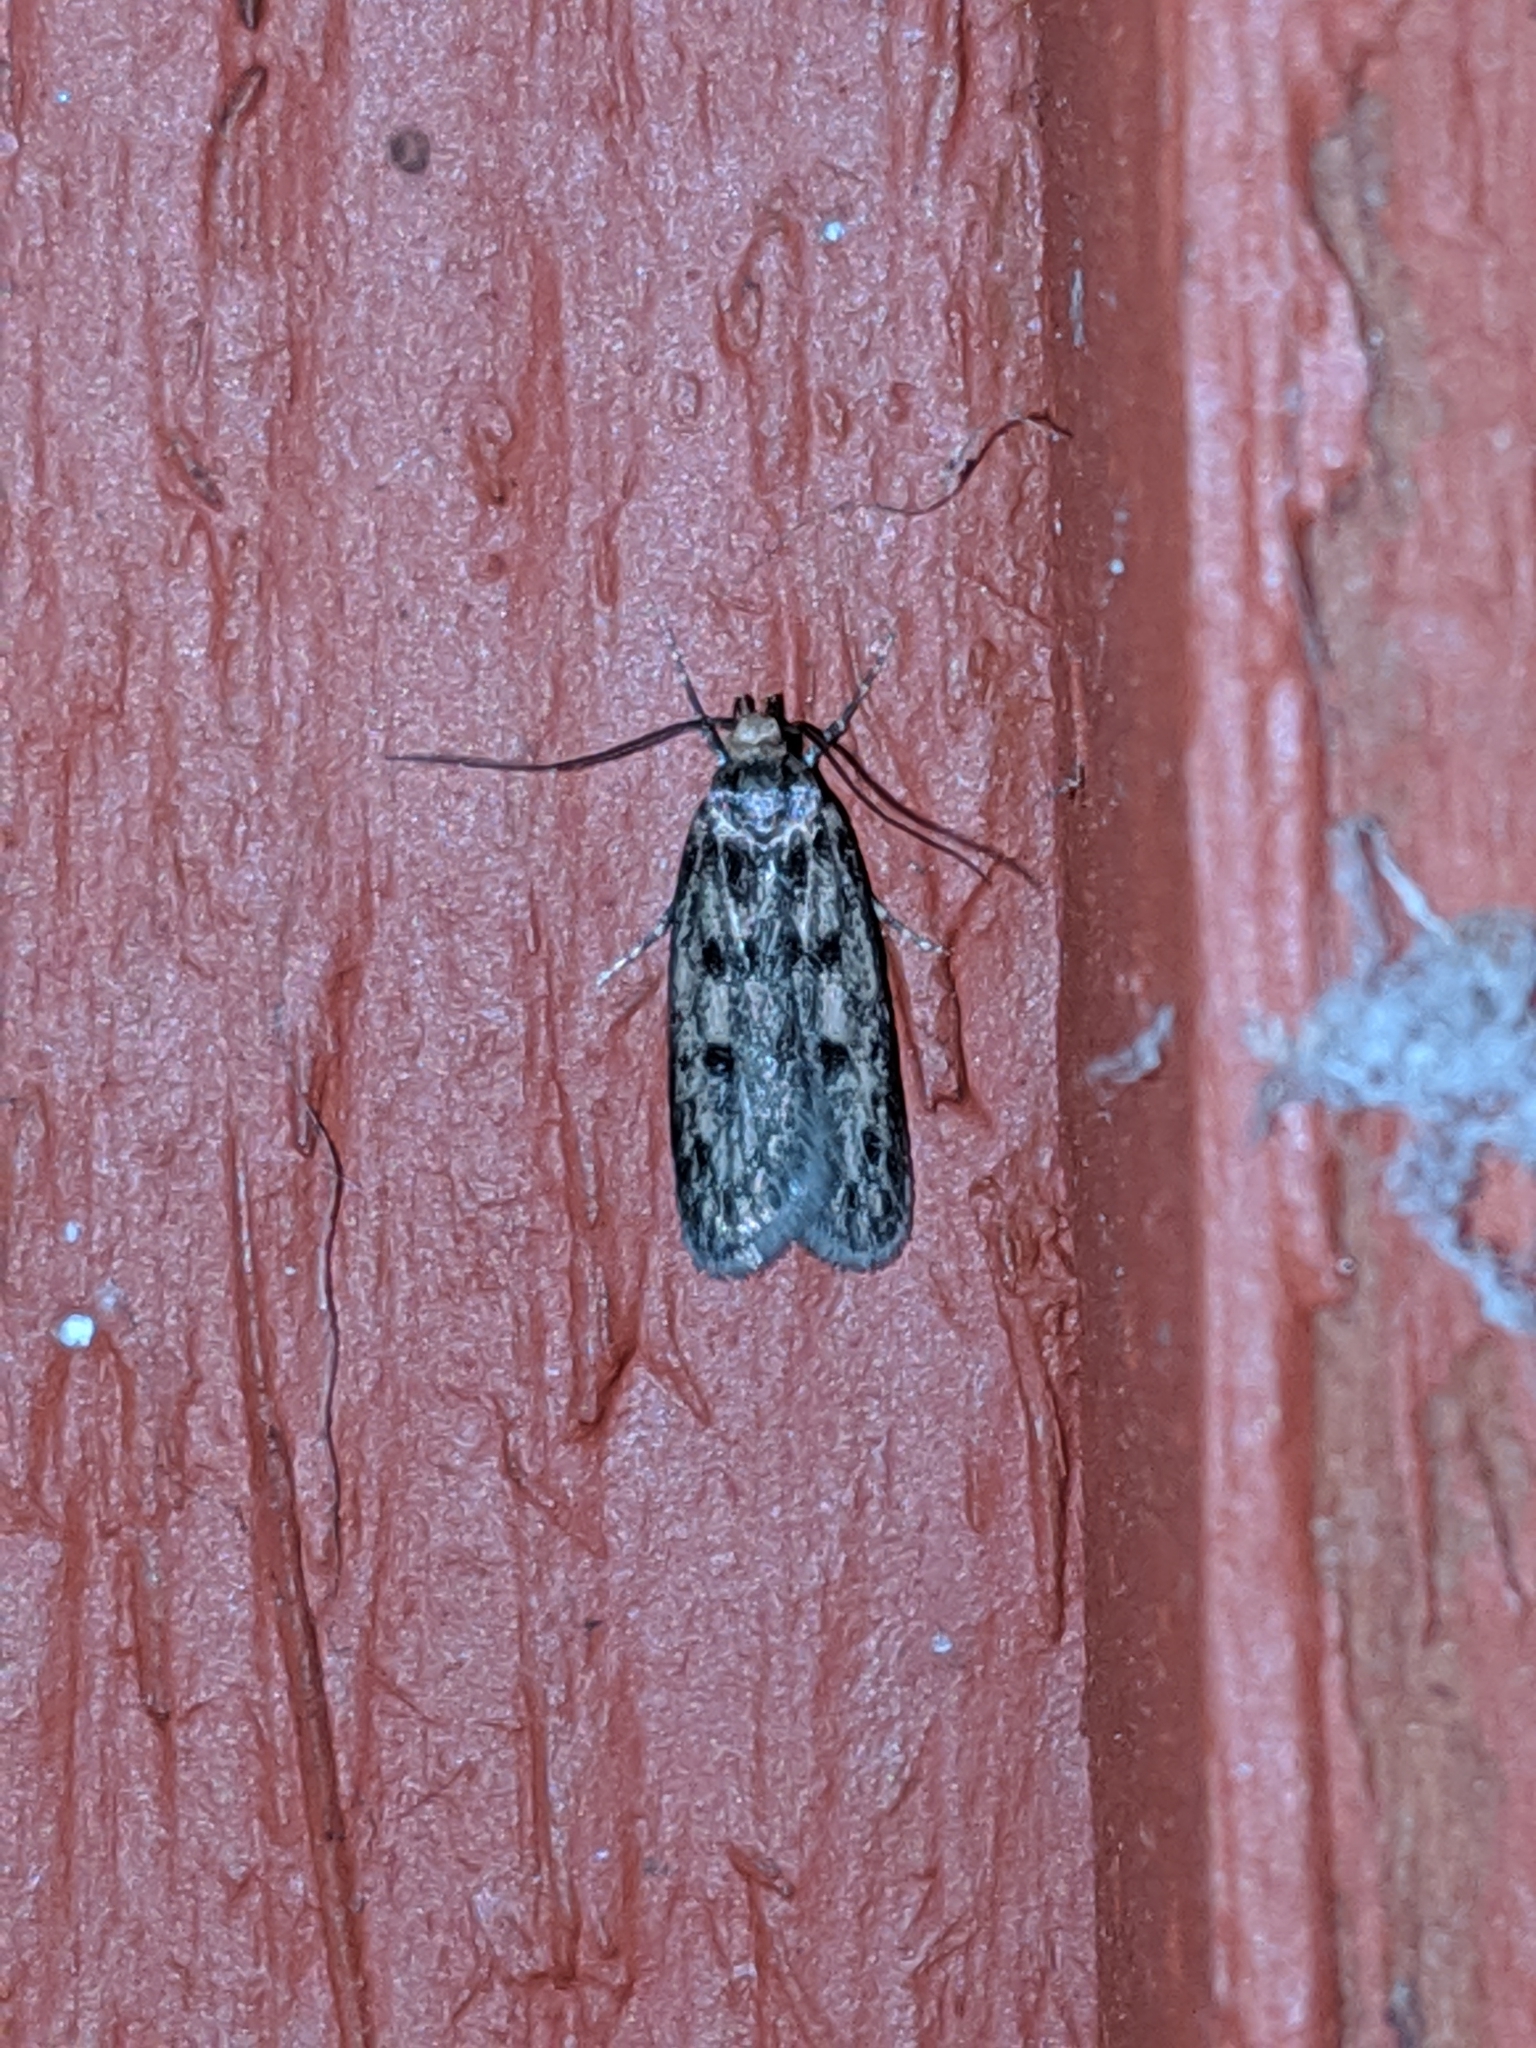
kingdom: Animalia
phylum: Arthropoda
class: Insecta
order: Lepidoptera
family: Oecophoridae
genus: Hofmannophila
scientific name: Hofmannophila pseudospretella
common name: Brown house moth
